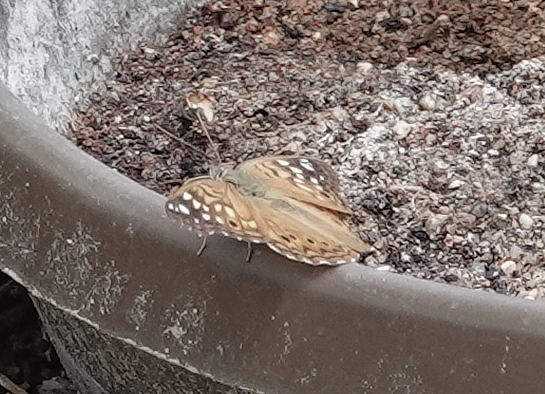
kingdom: Animalia
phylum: Arthropoda
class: Insecta
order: Lepidoptera
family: Nymphalidae
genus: Asterocampa
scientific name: Asterocampa celtis
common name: Hackberry emperor
